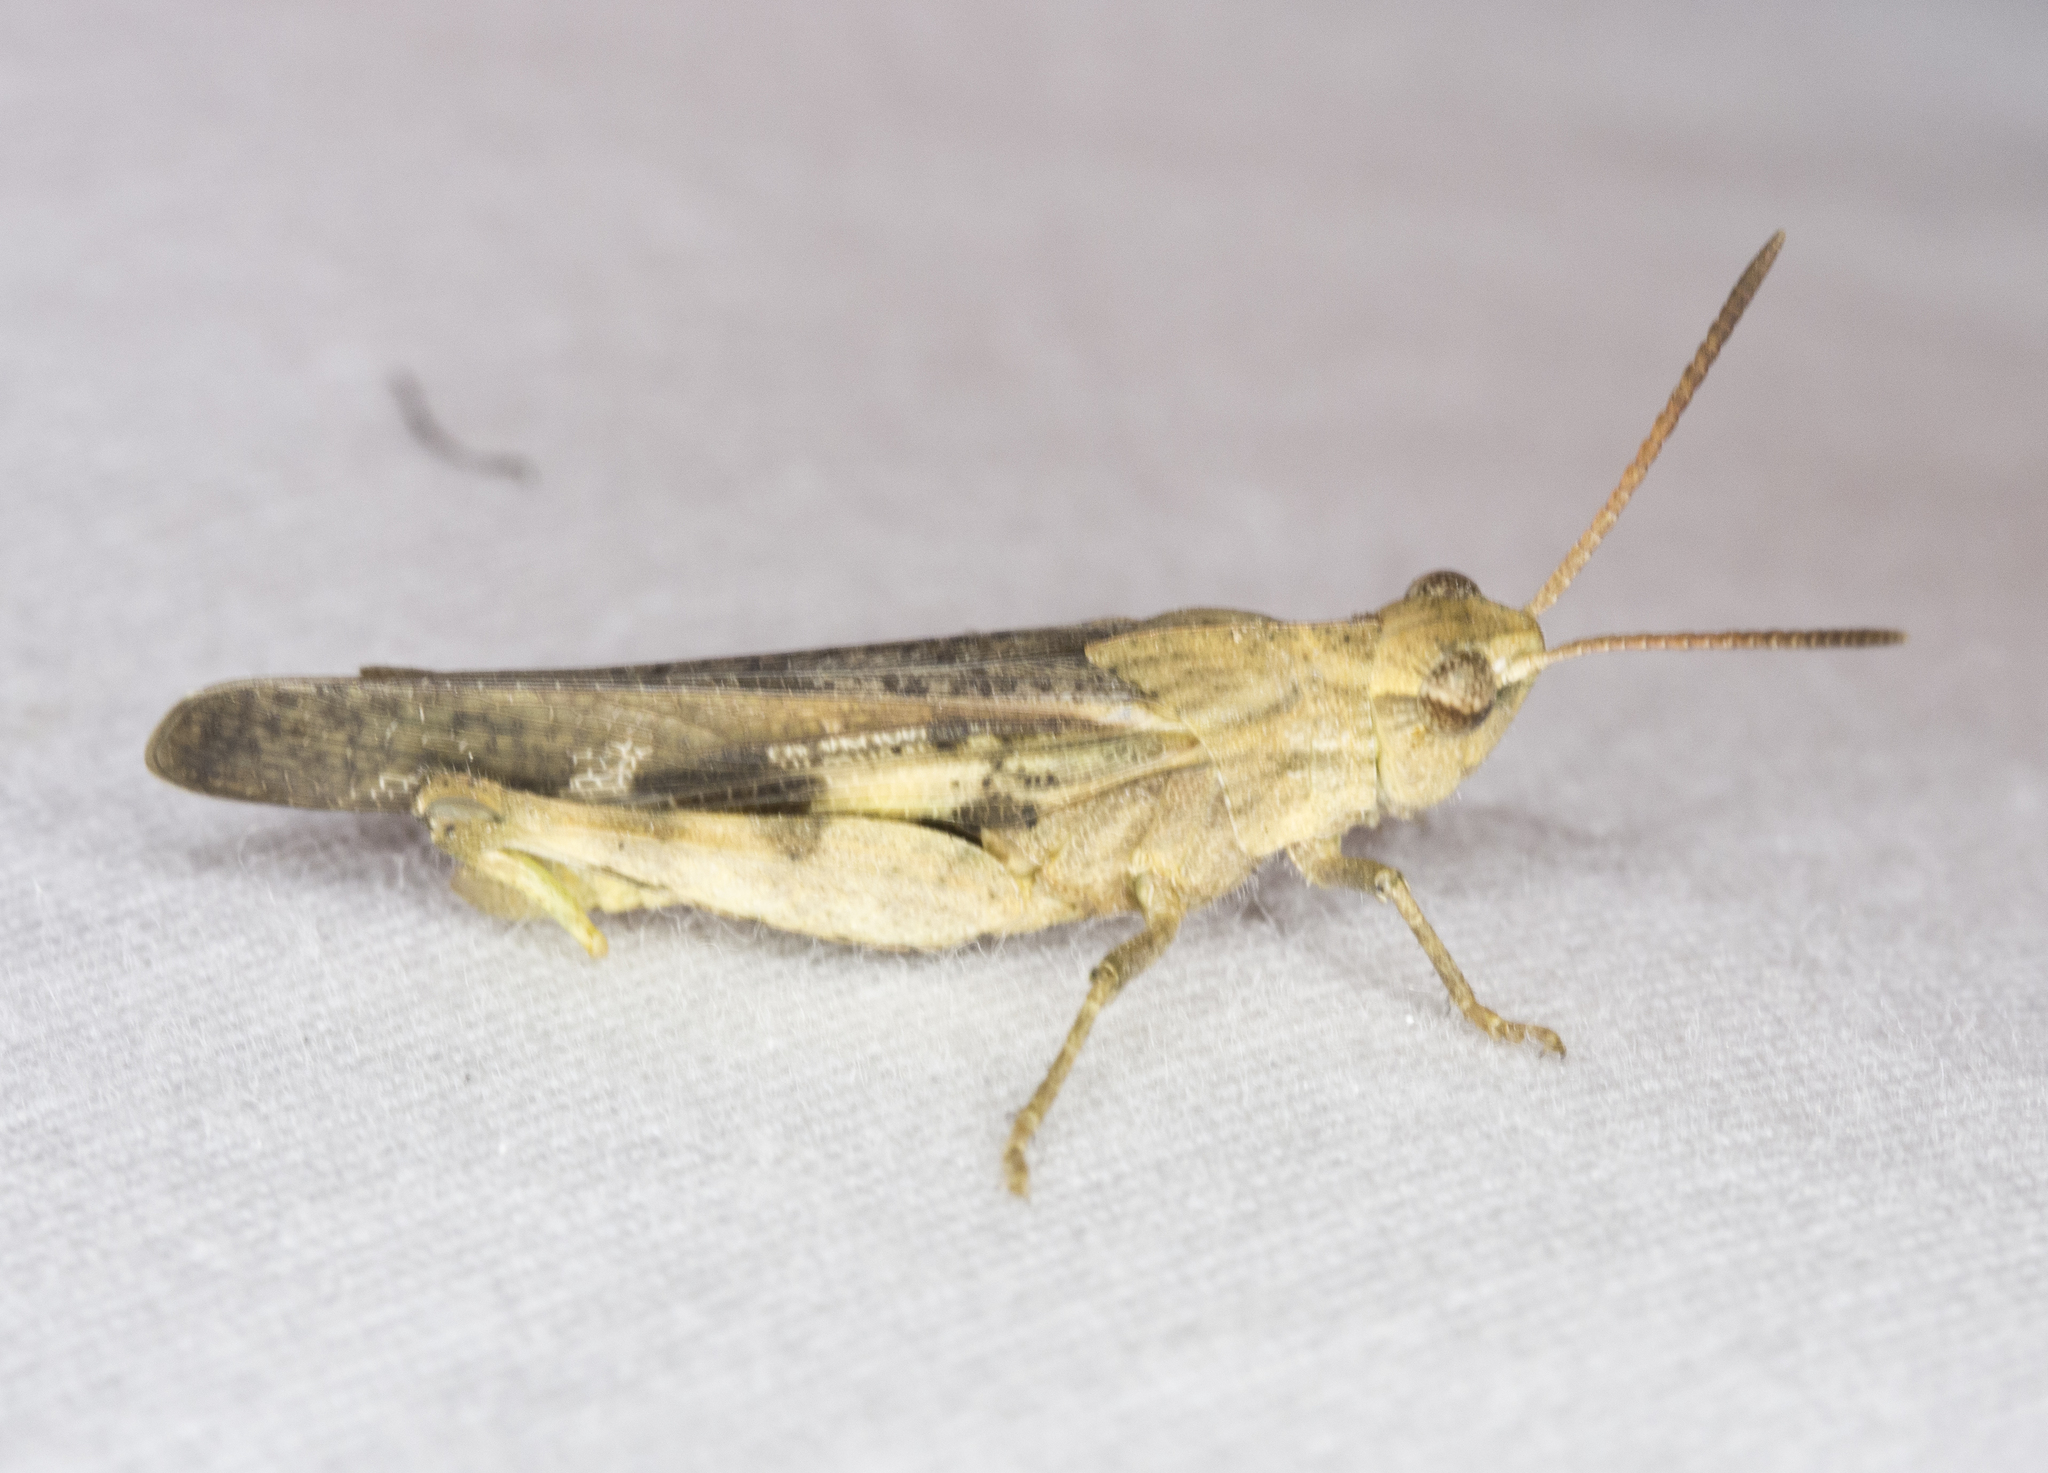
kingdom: Animalia
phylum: Arthropoda
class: Insecta
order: Orthoptera
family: Acrididae
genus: Chortophaga
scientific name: Chortophaga viridifasciata
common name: Green-striped grasshopper
